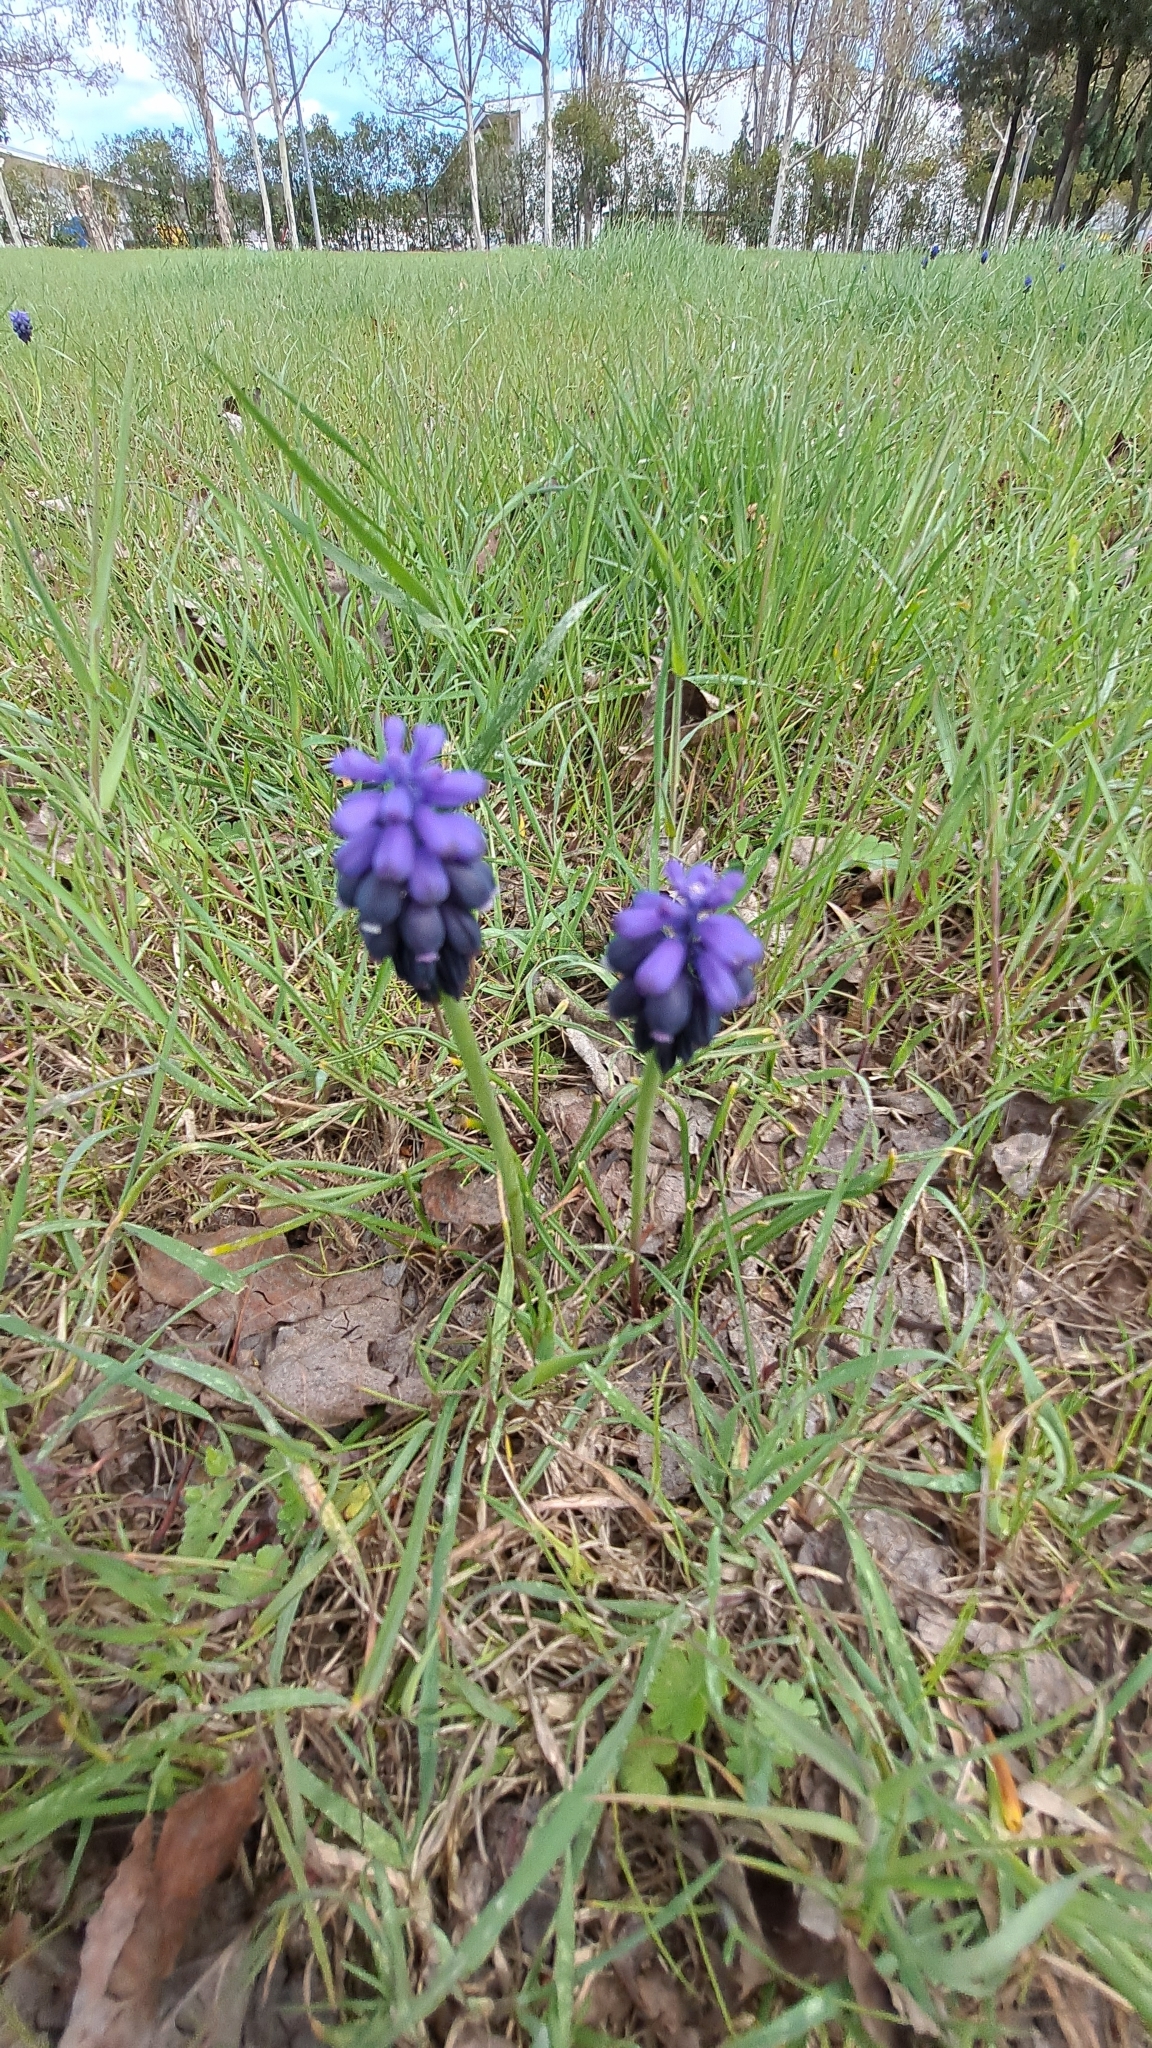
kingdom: Plantae
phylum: Tracheophyta
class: Liliopsida
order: Asparagales
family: Asparagaceae
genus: Muscari
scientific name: Muscari neglectum
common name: Grape-hyacinth
